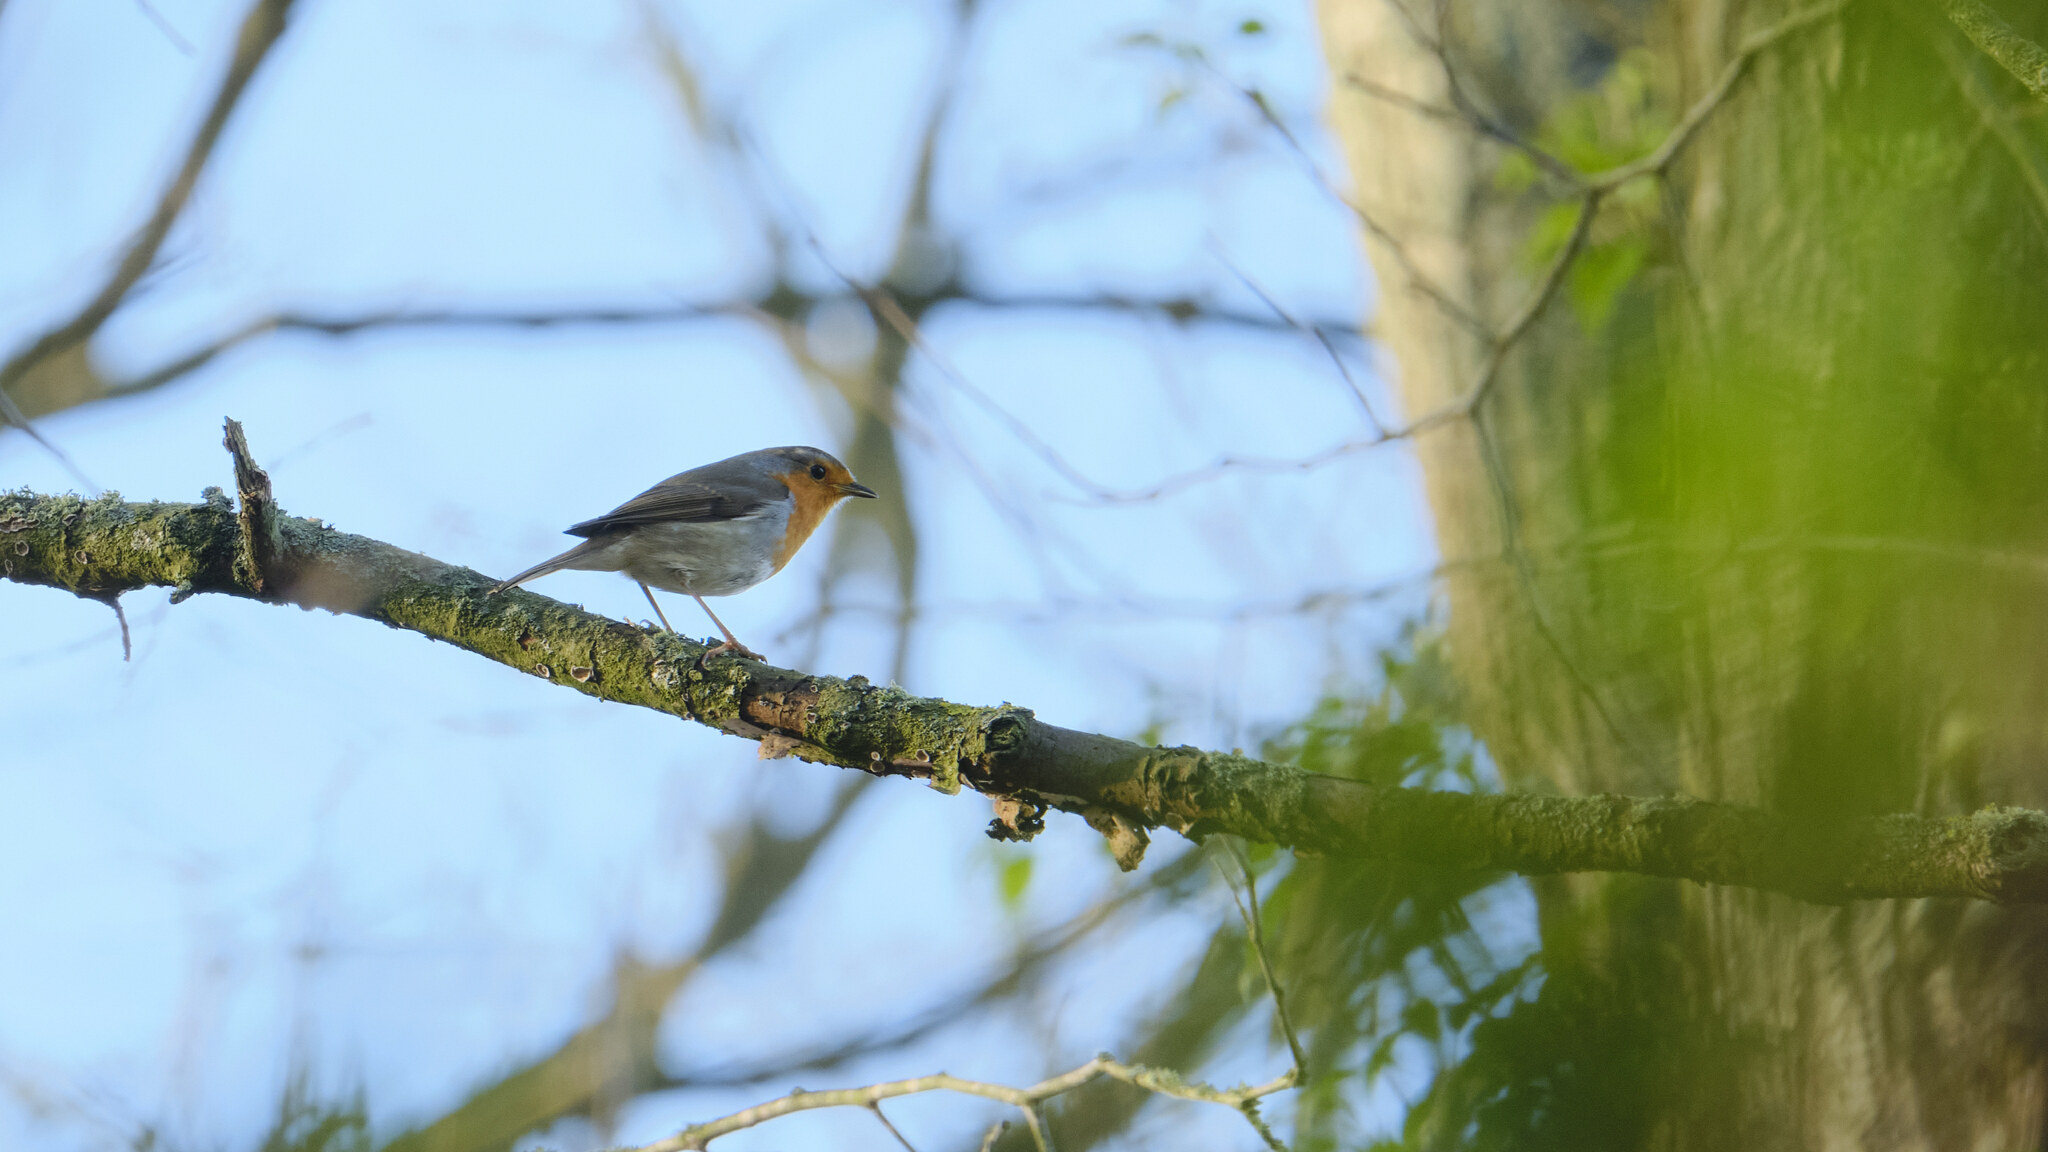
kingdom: Animalia
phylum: Chordata
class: Aves
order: Passeriformes
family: Muscicapidae
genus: Erithacus
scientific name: Erithacus rubecula
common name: European robin
